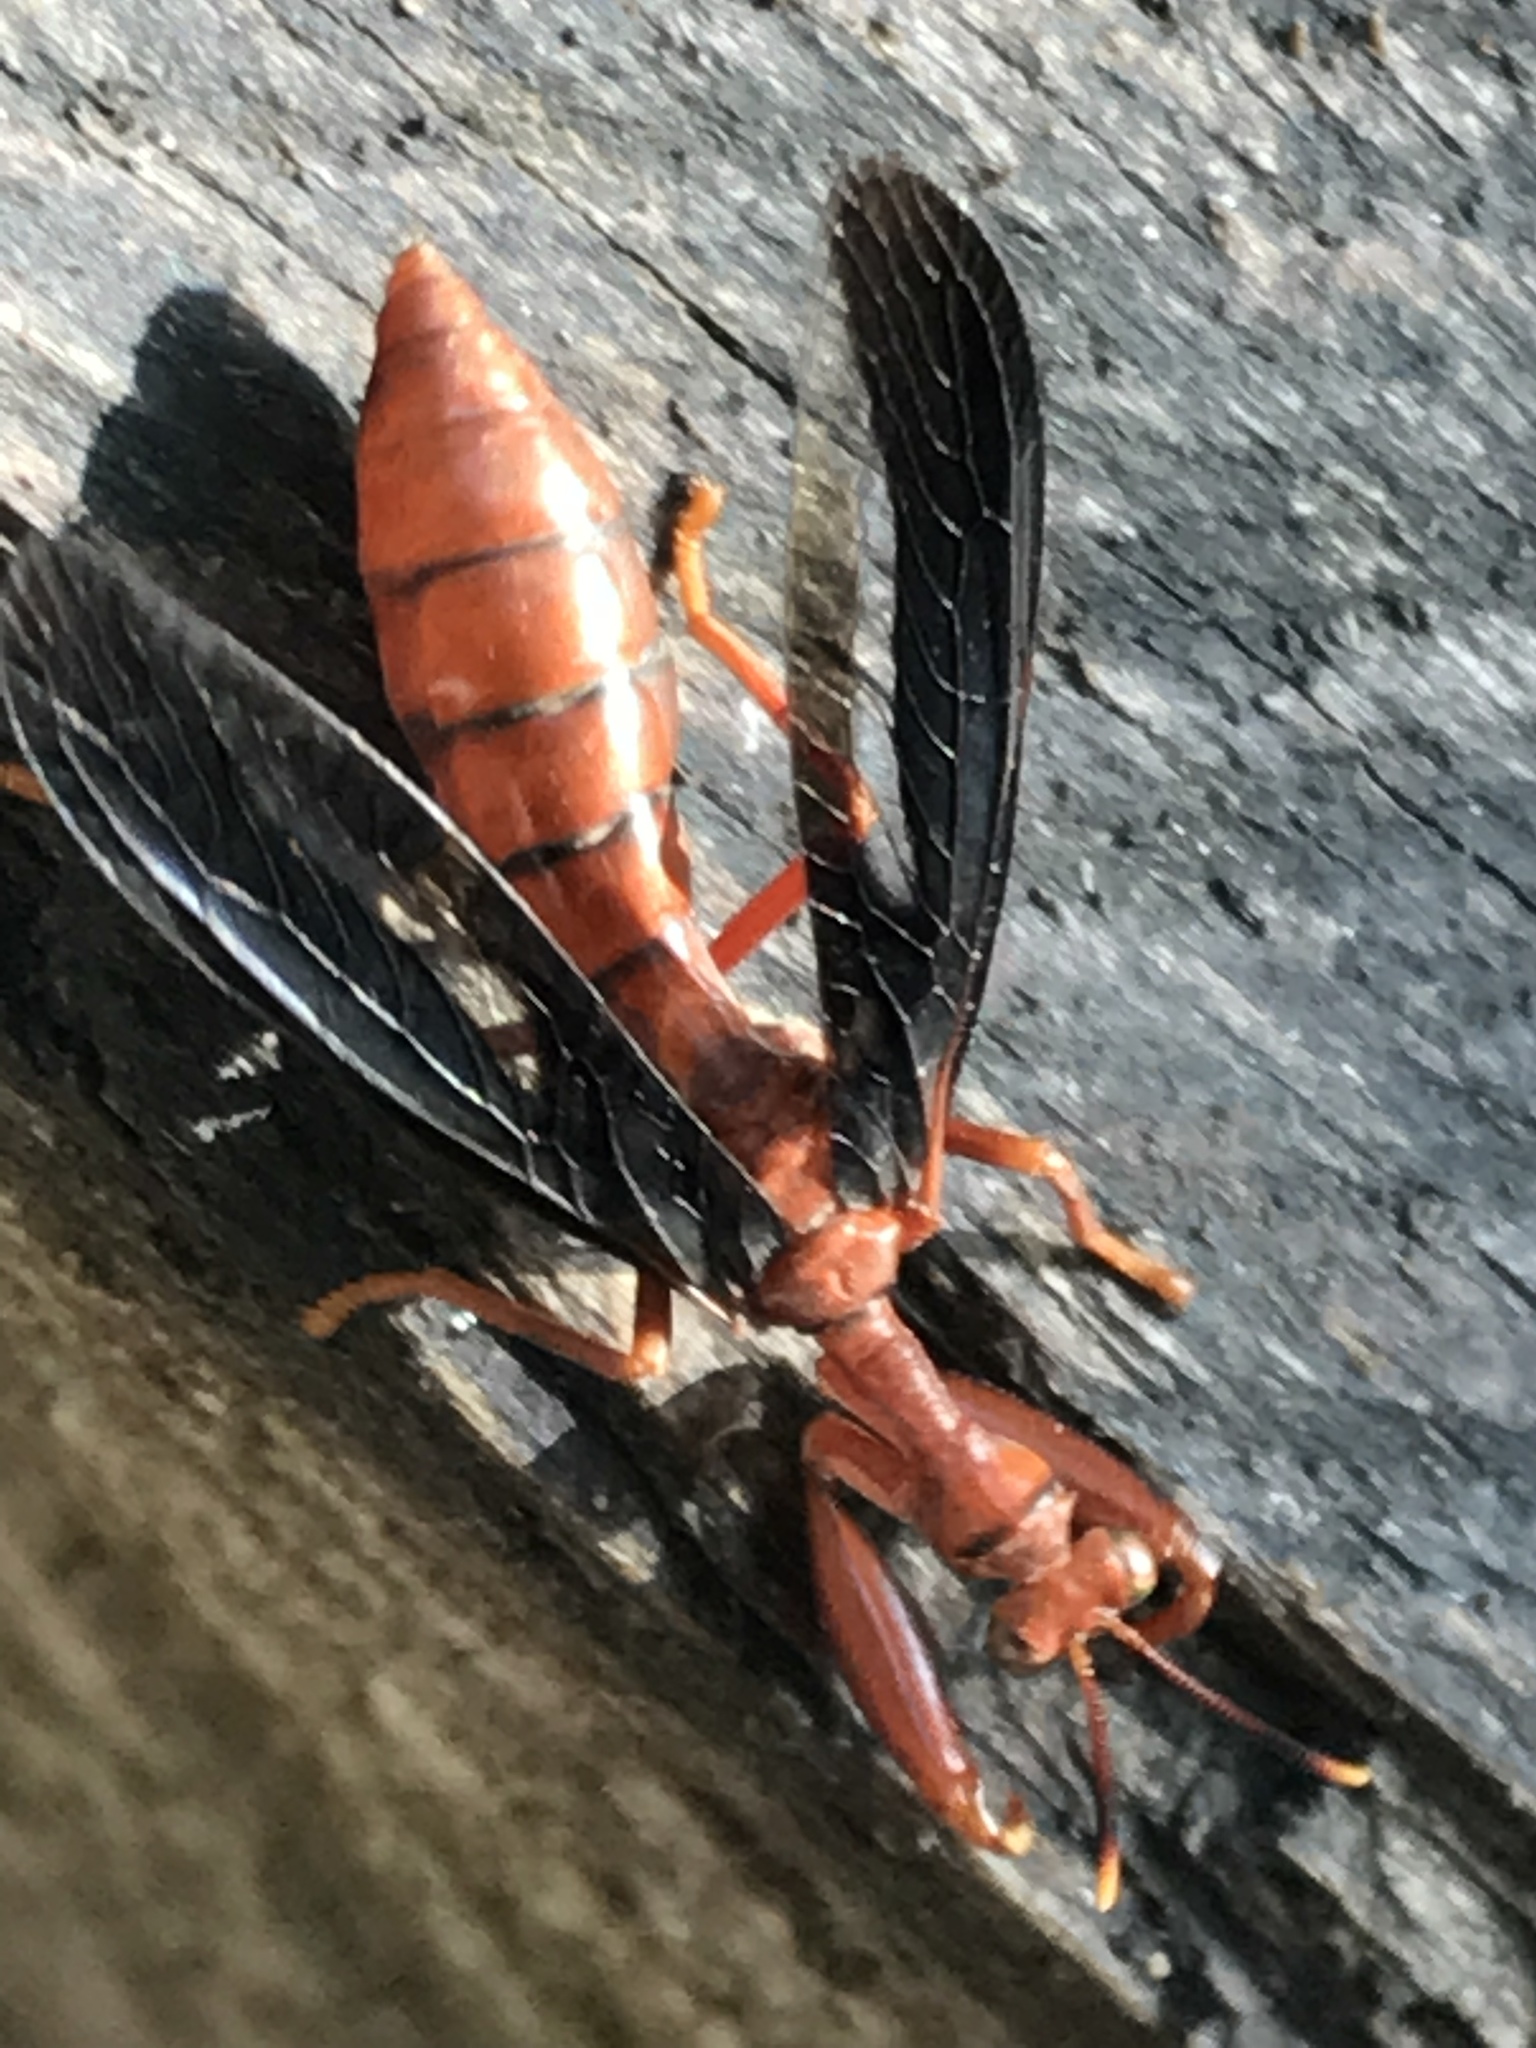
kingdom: Animalia
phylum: Arthropoda
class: Insecta
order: Neuroptera
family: Mantispidae
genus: Climaciella
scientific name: Climaciella brunnea
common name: Brown wasp mantidfly
